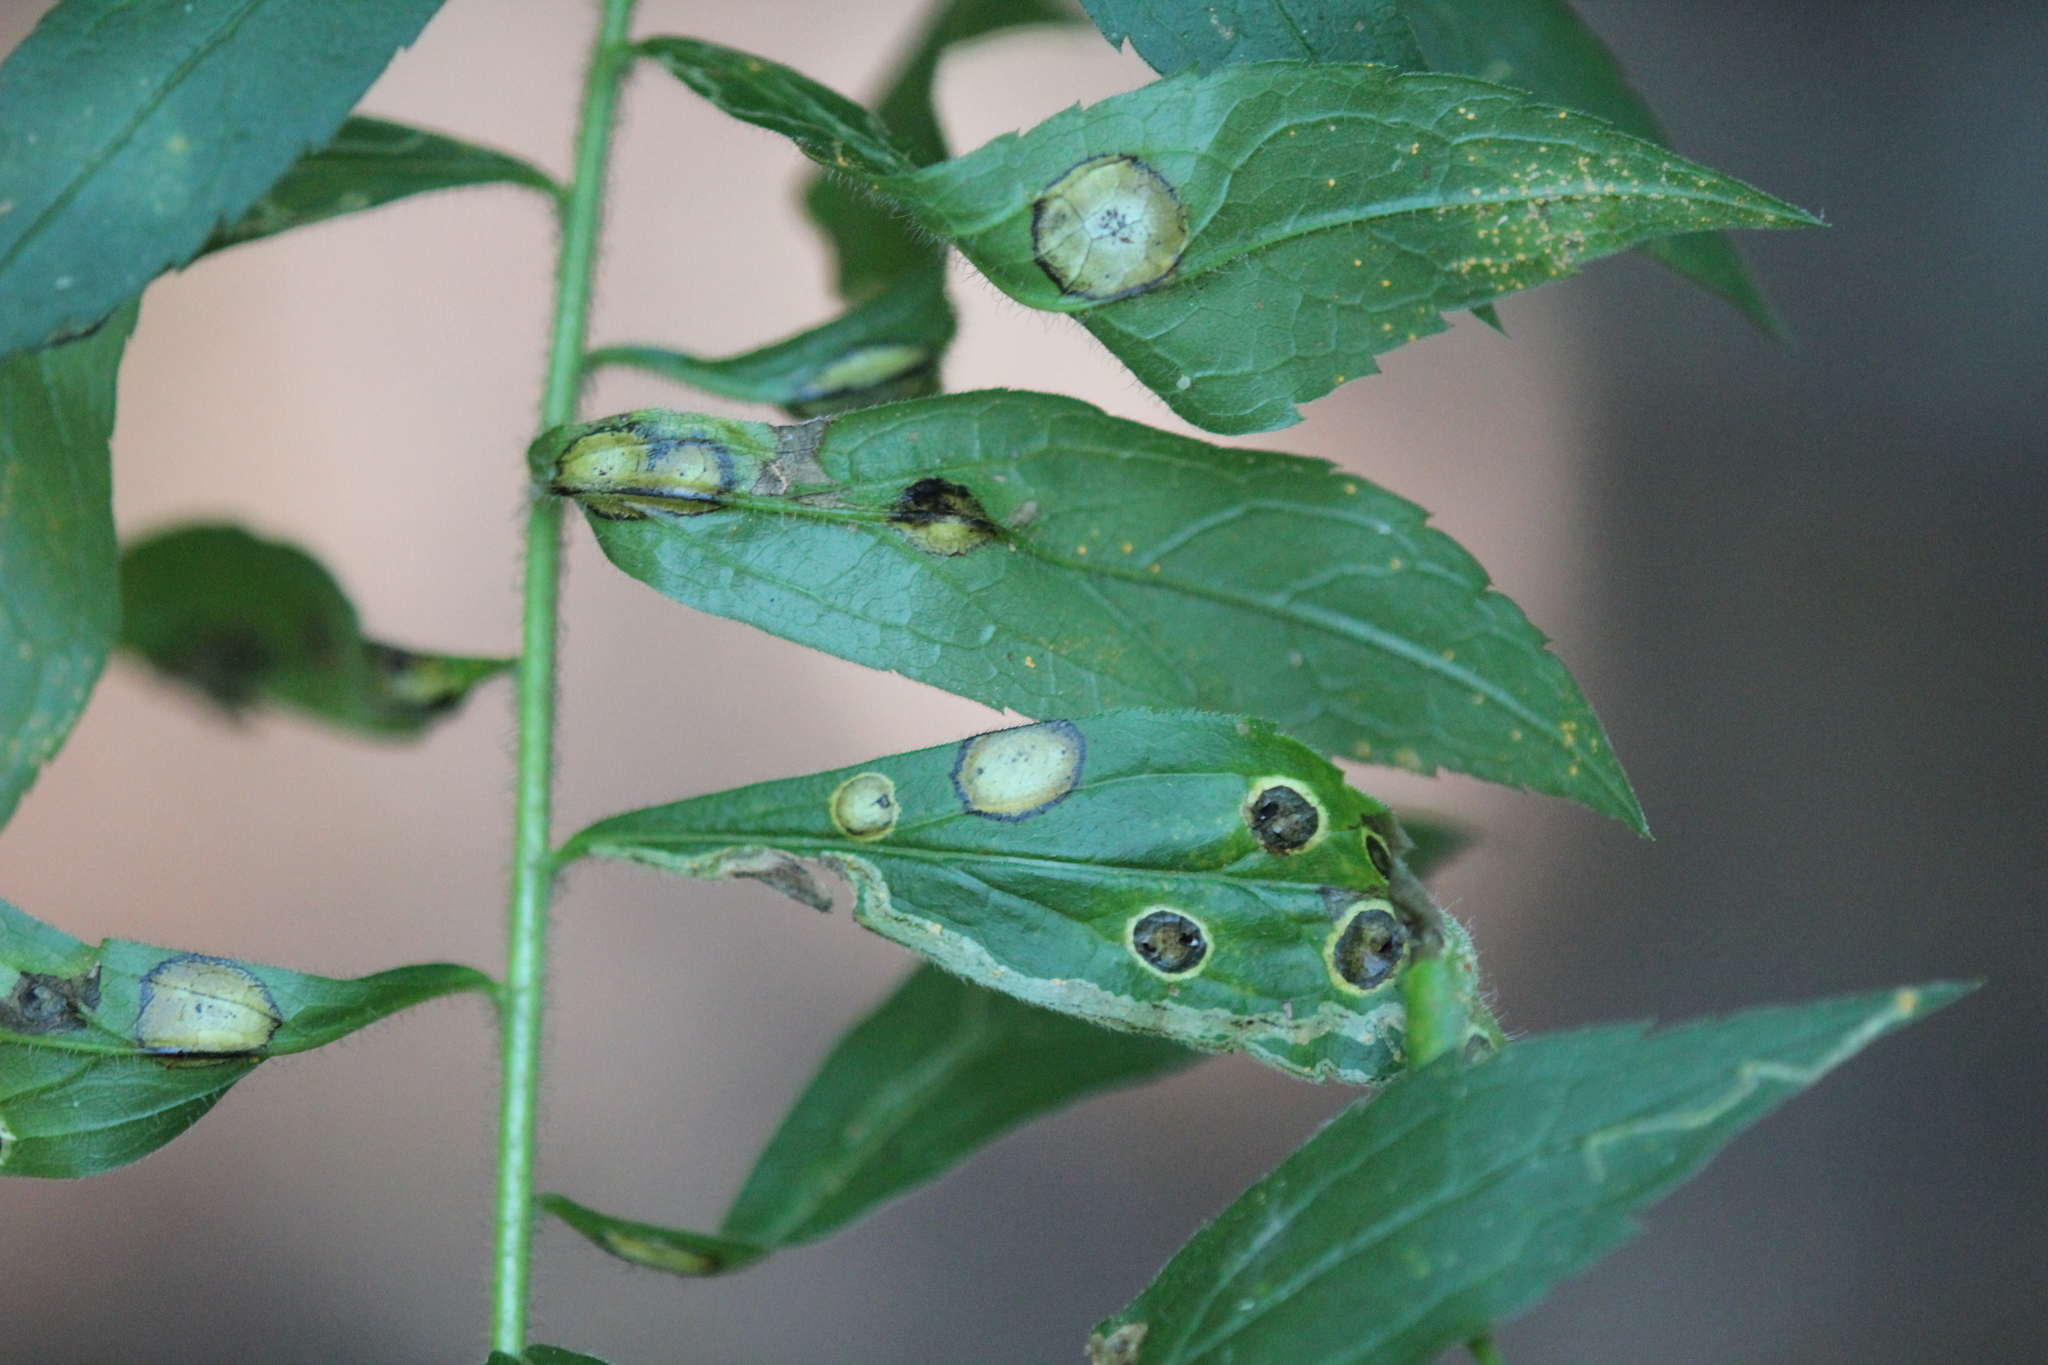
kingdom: Animalia
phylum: Arthropoda
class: Insecta
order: Diptera
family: Cecidomyiidae
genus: Asteromyia
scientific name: Asteromyia carbonifera
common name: Carbonifera goldenrod gall midge
